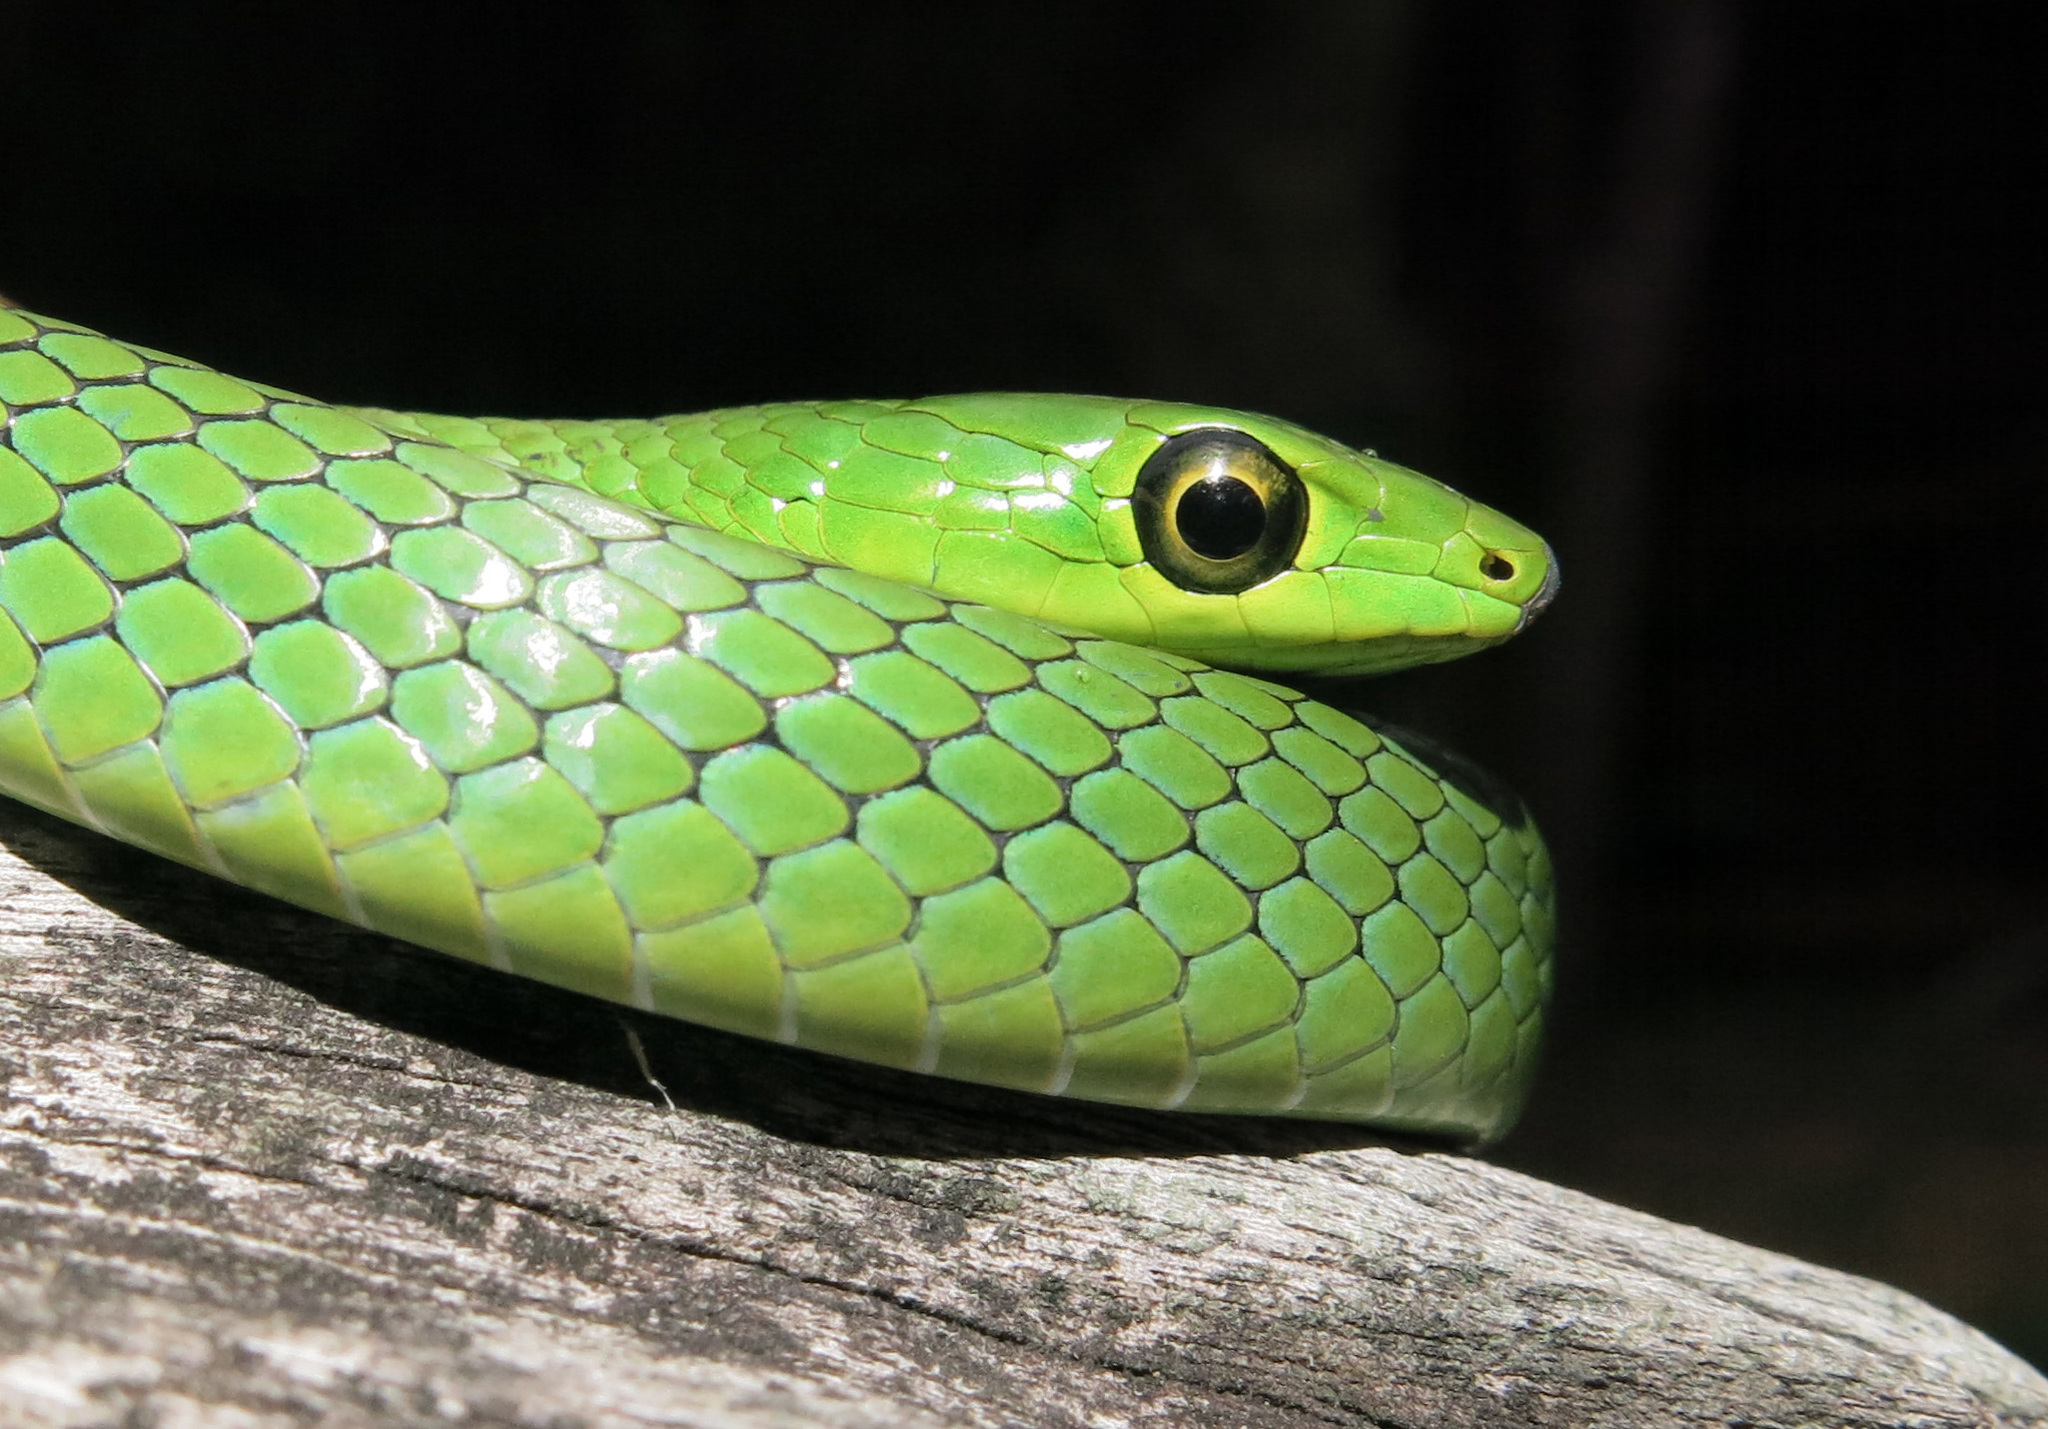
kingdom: Animalia
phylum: Chordata
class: Squamata
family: Colubridae
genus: Philothamnus
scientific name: Philothamnus natalensis
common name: Eastern natal green snake
